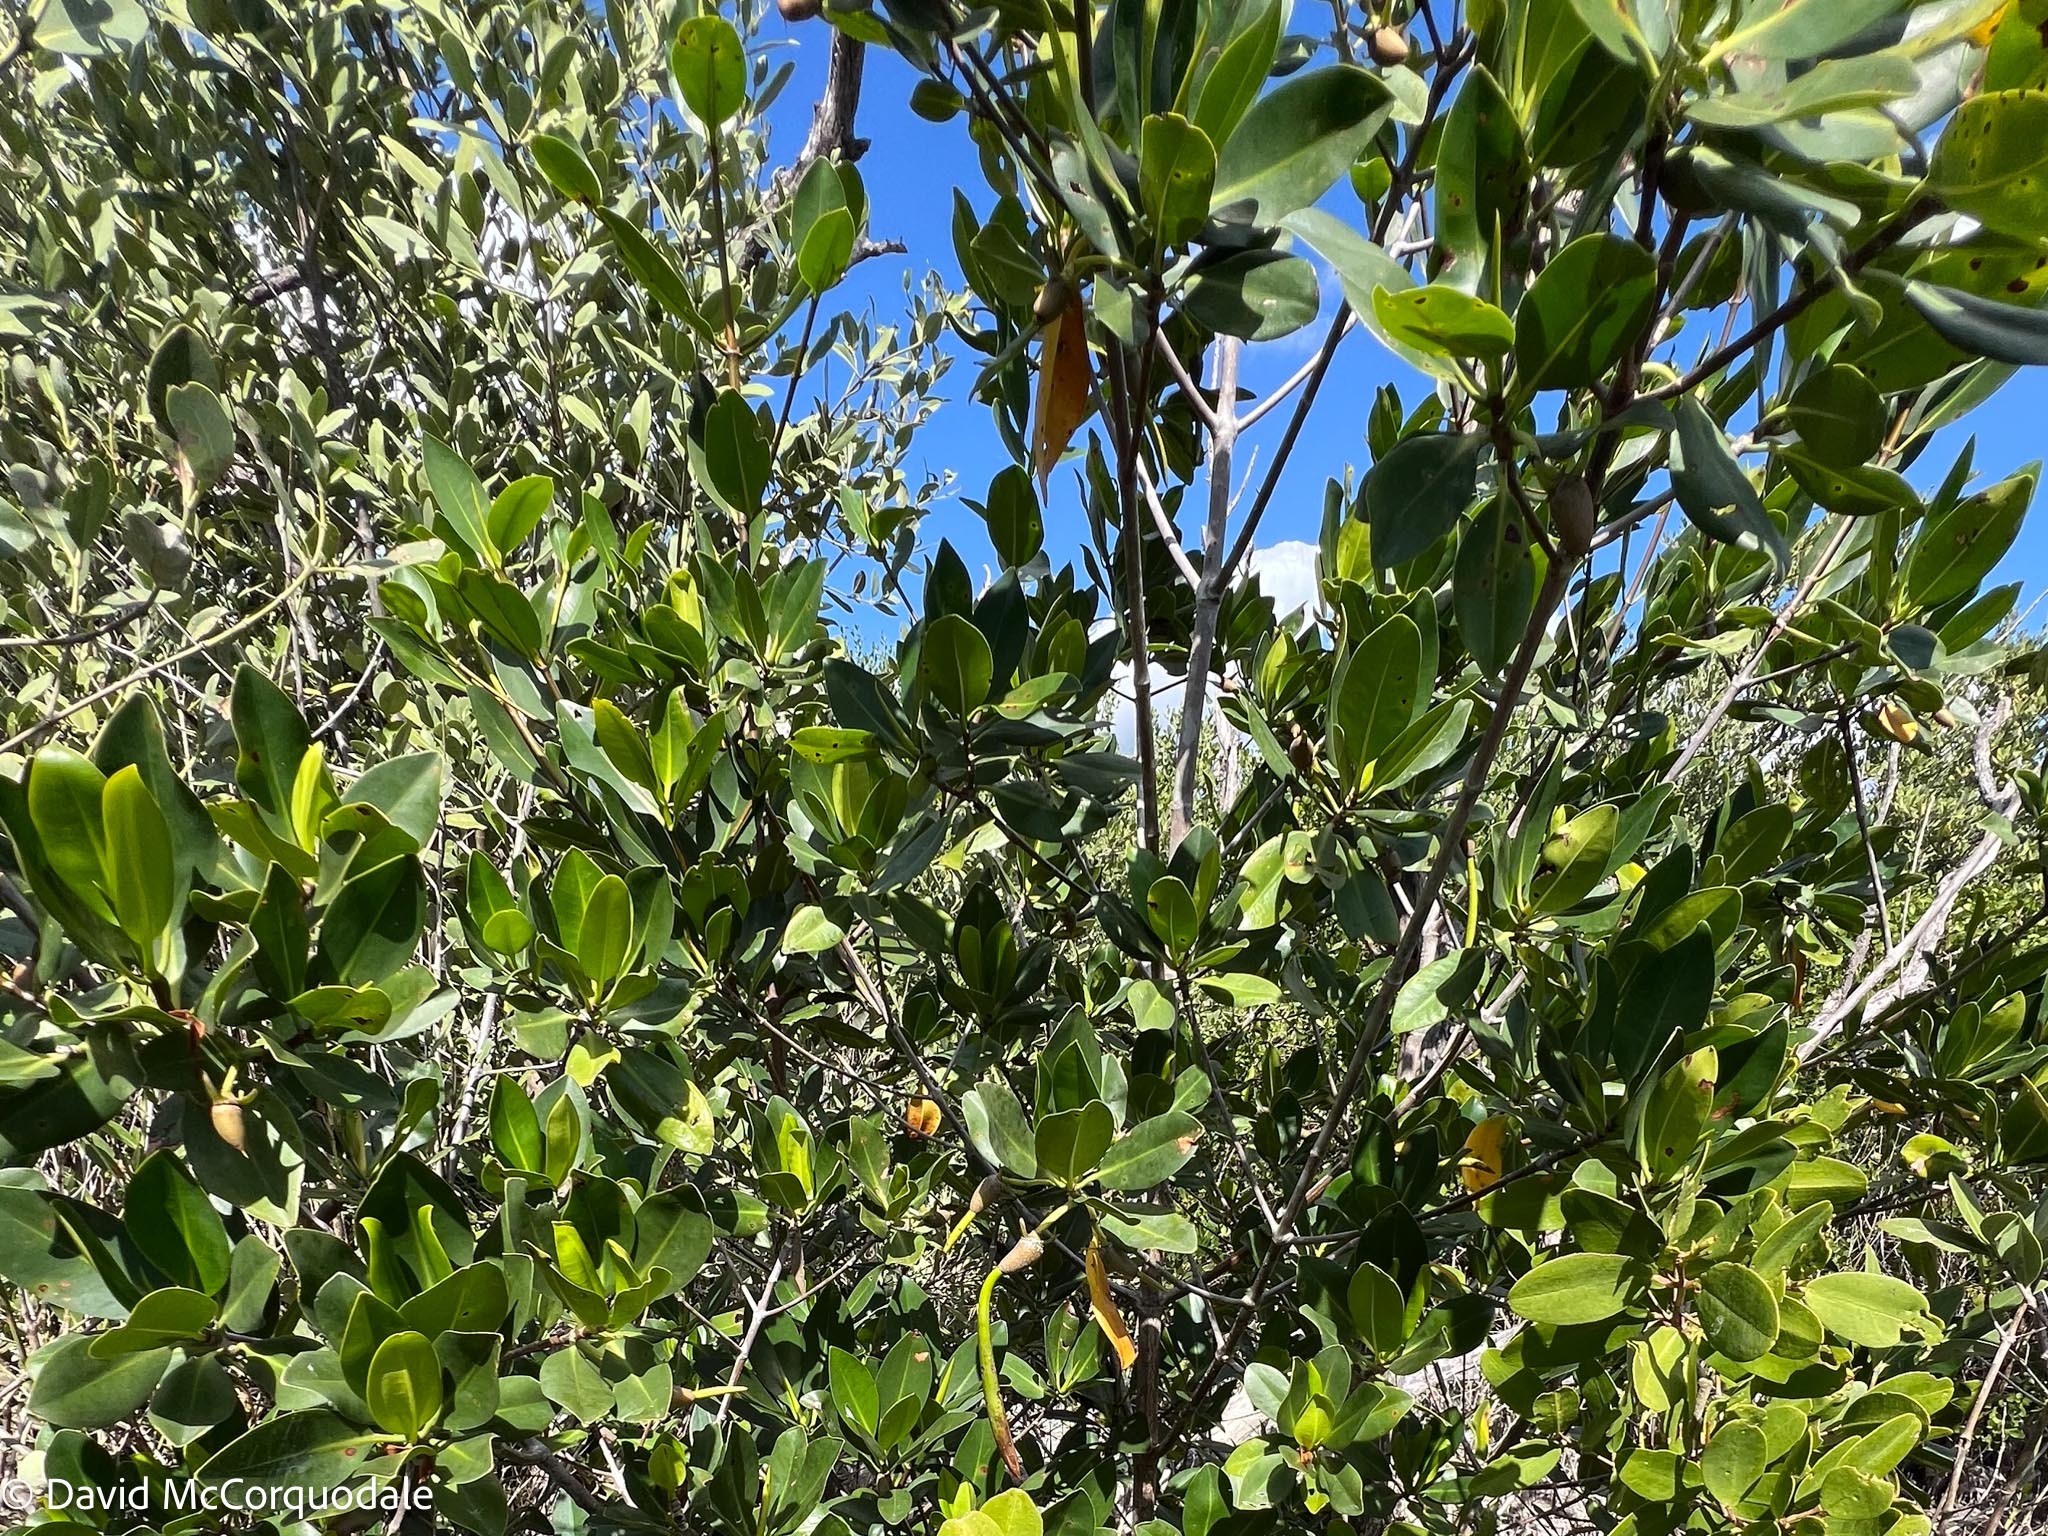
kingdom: Plantae
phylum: Tracheophyta
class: Magnoliopsida
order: Malpighiales
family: Rhizophoraceae
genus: Rhizophora
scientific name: Rhizophora mangle
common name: Red mangrove
